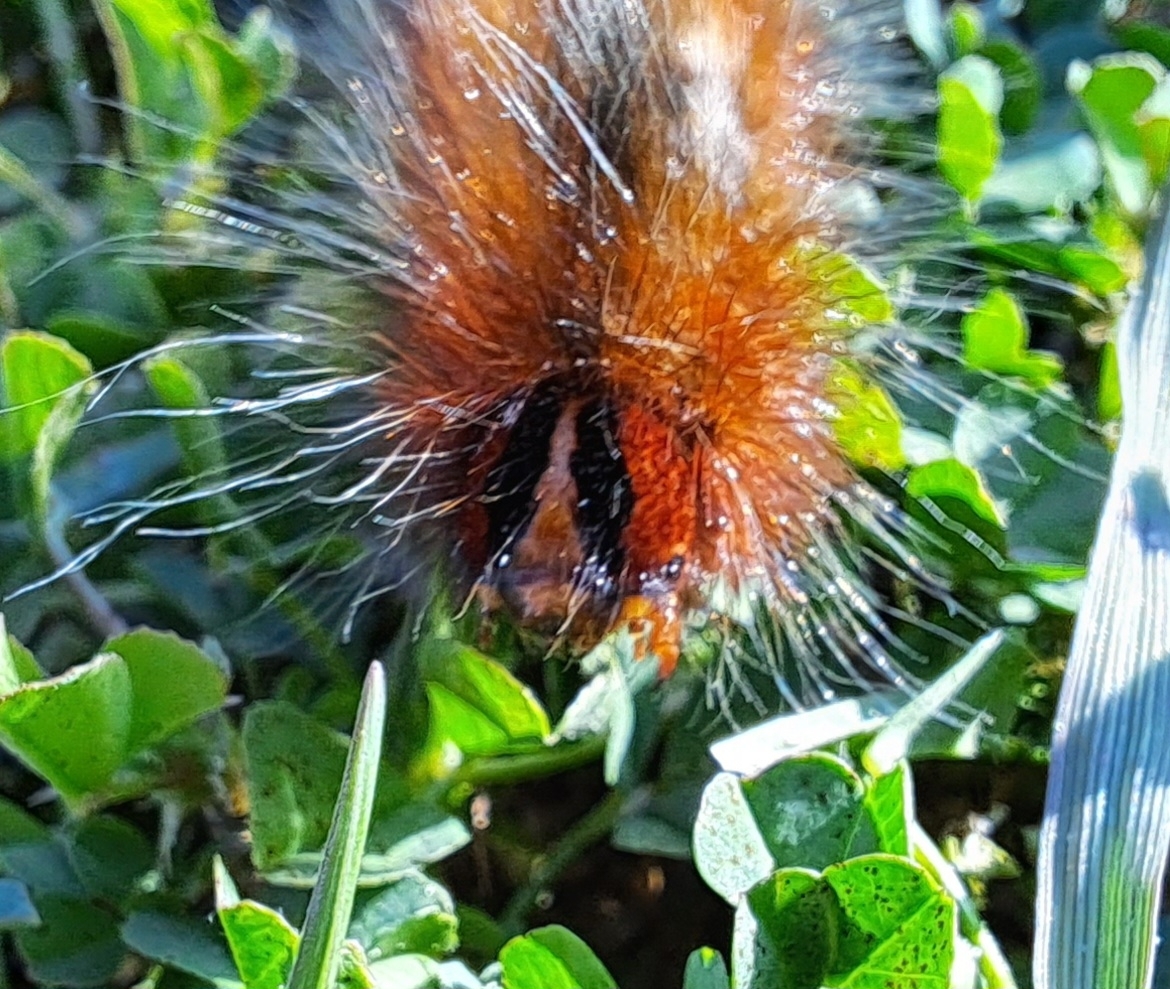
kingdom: Animalia
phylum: Arthropoda
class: Insecta
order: Lepidoptera
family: Lasiocampidae
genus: Mesocelis
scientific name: Mesocelis monticola
